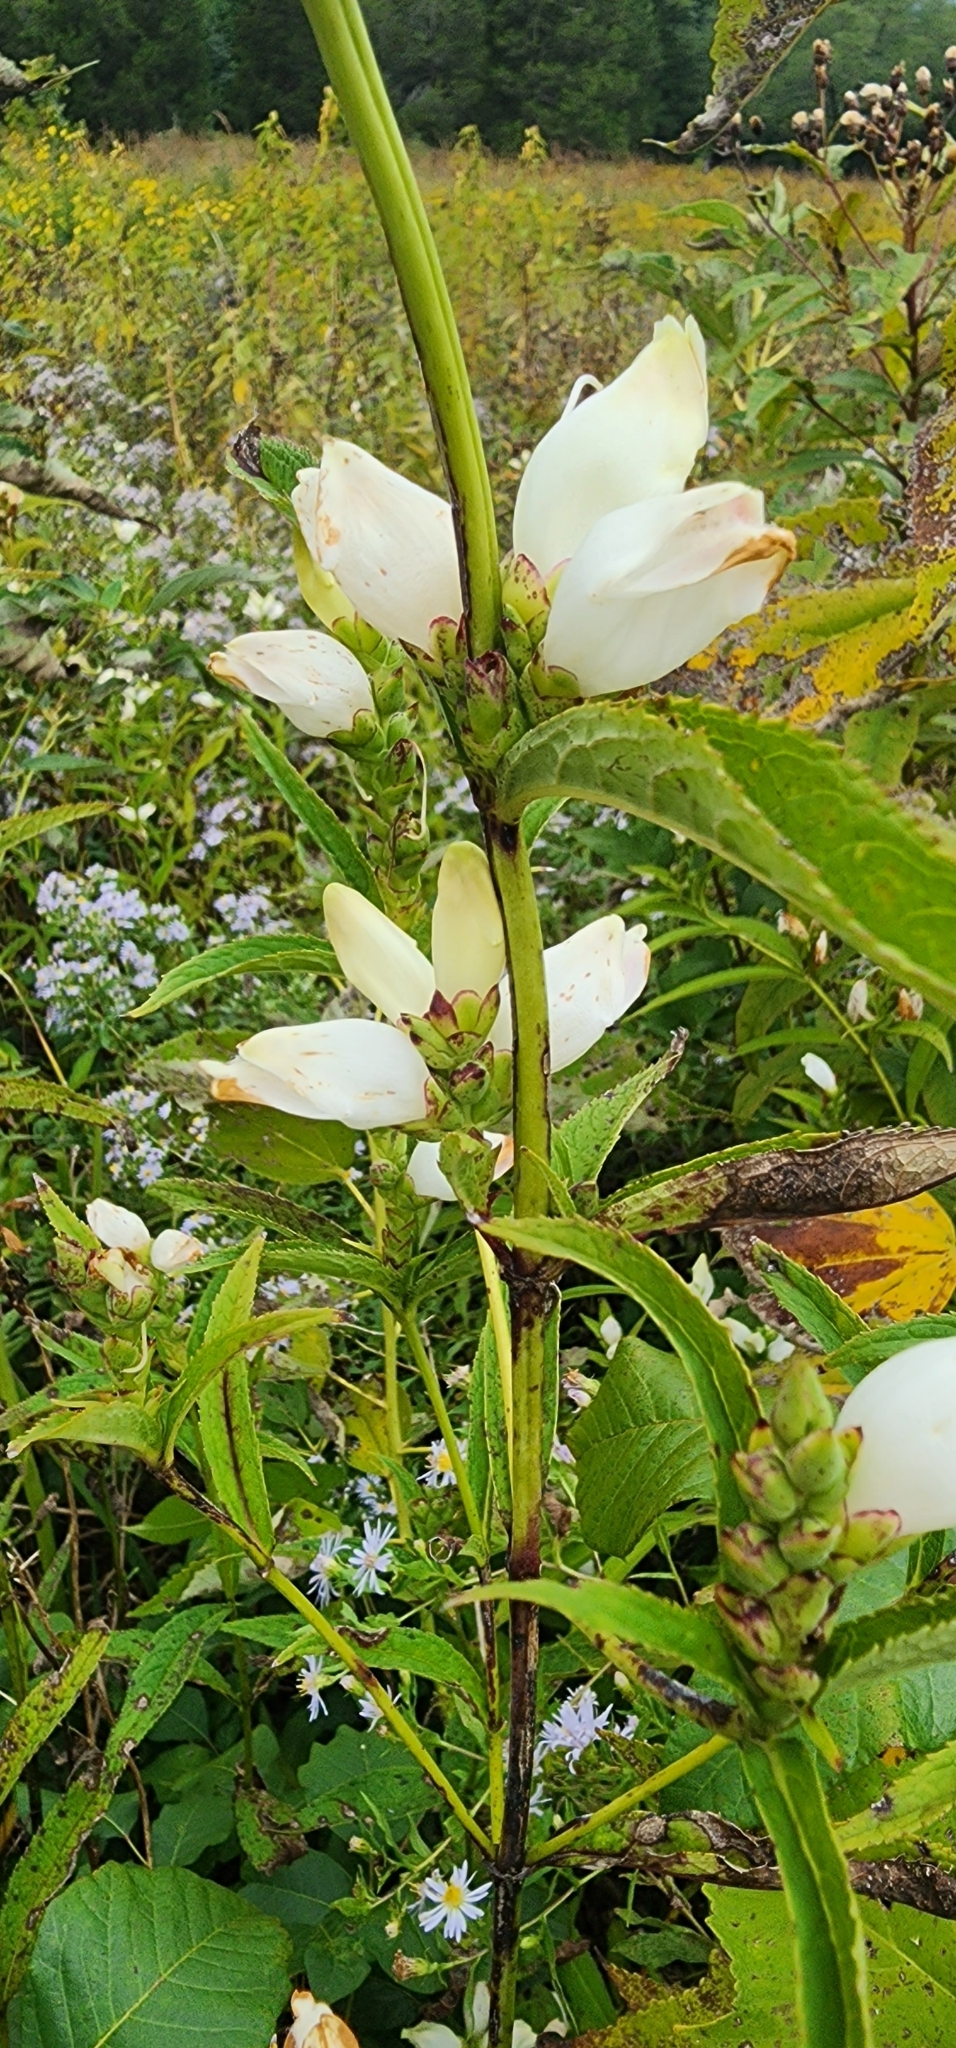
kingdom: Plantae
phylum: Tracheophyta
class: Magnoliopsida
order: Lamiales
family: Plantaginaceae
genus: Chelone
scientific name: Chelone glabra
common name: Snakehead
